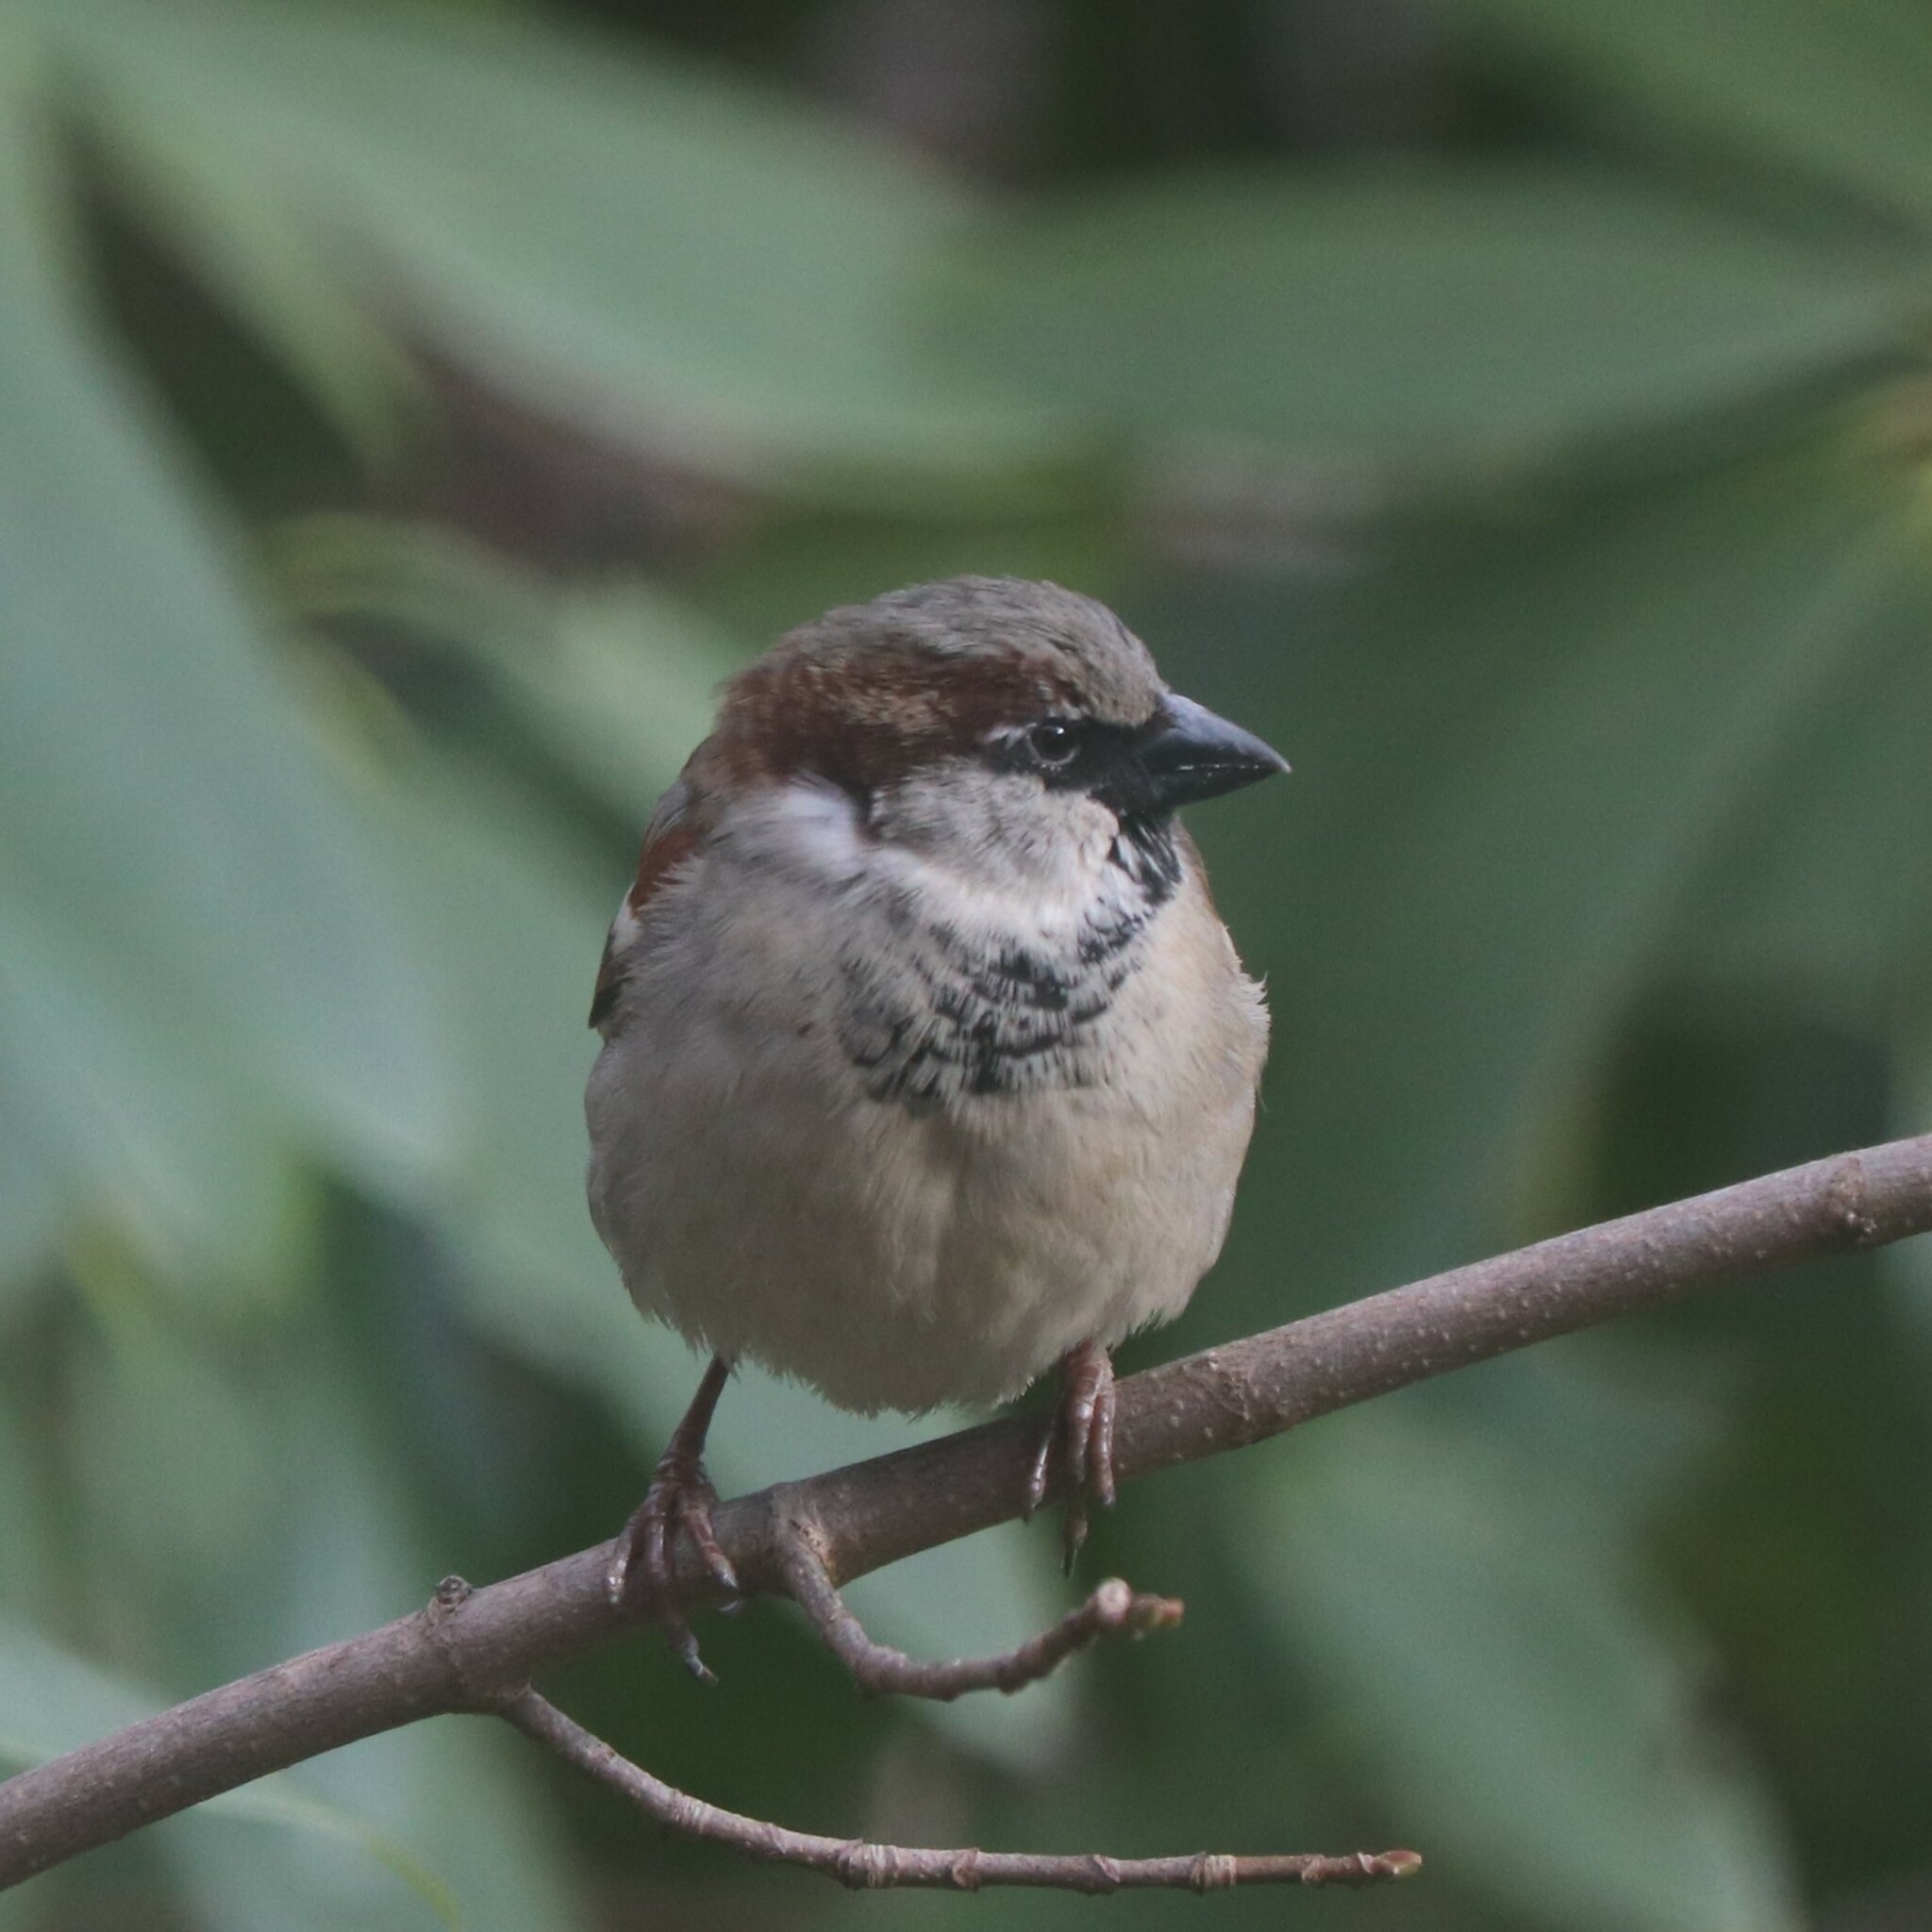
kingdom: Animalia
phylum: Chordata
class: Aves
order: Passeriformes
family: Passeridae
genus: Passer
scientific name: Passer domesticus
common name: House sparrow
